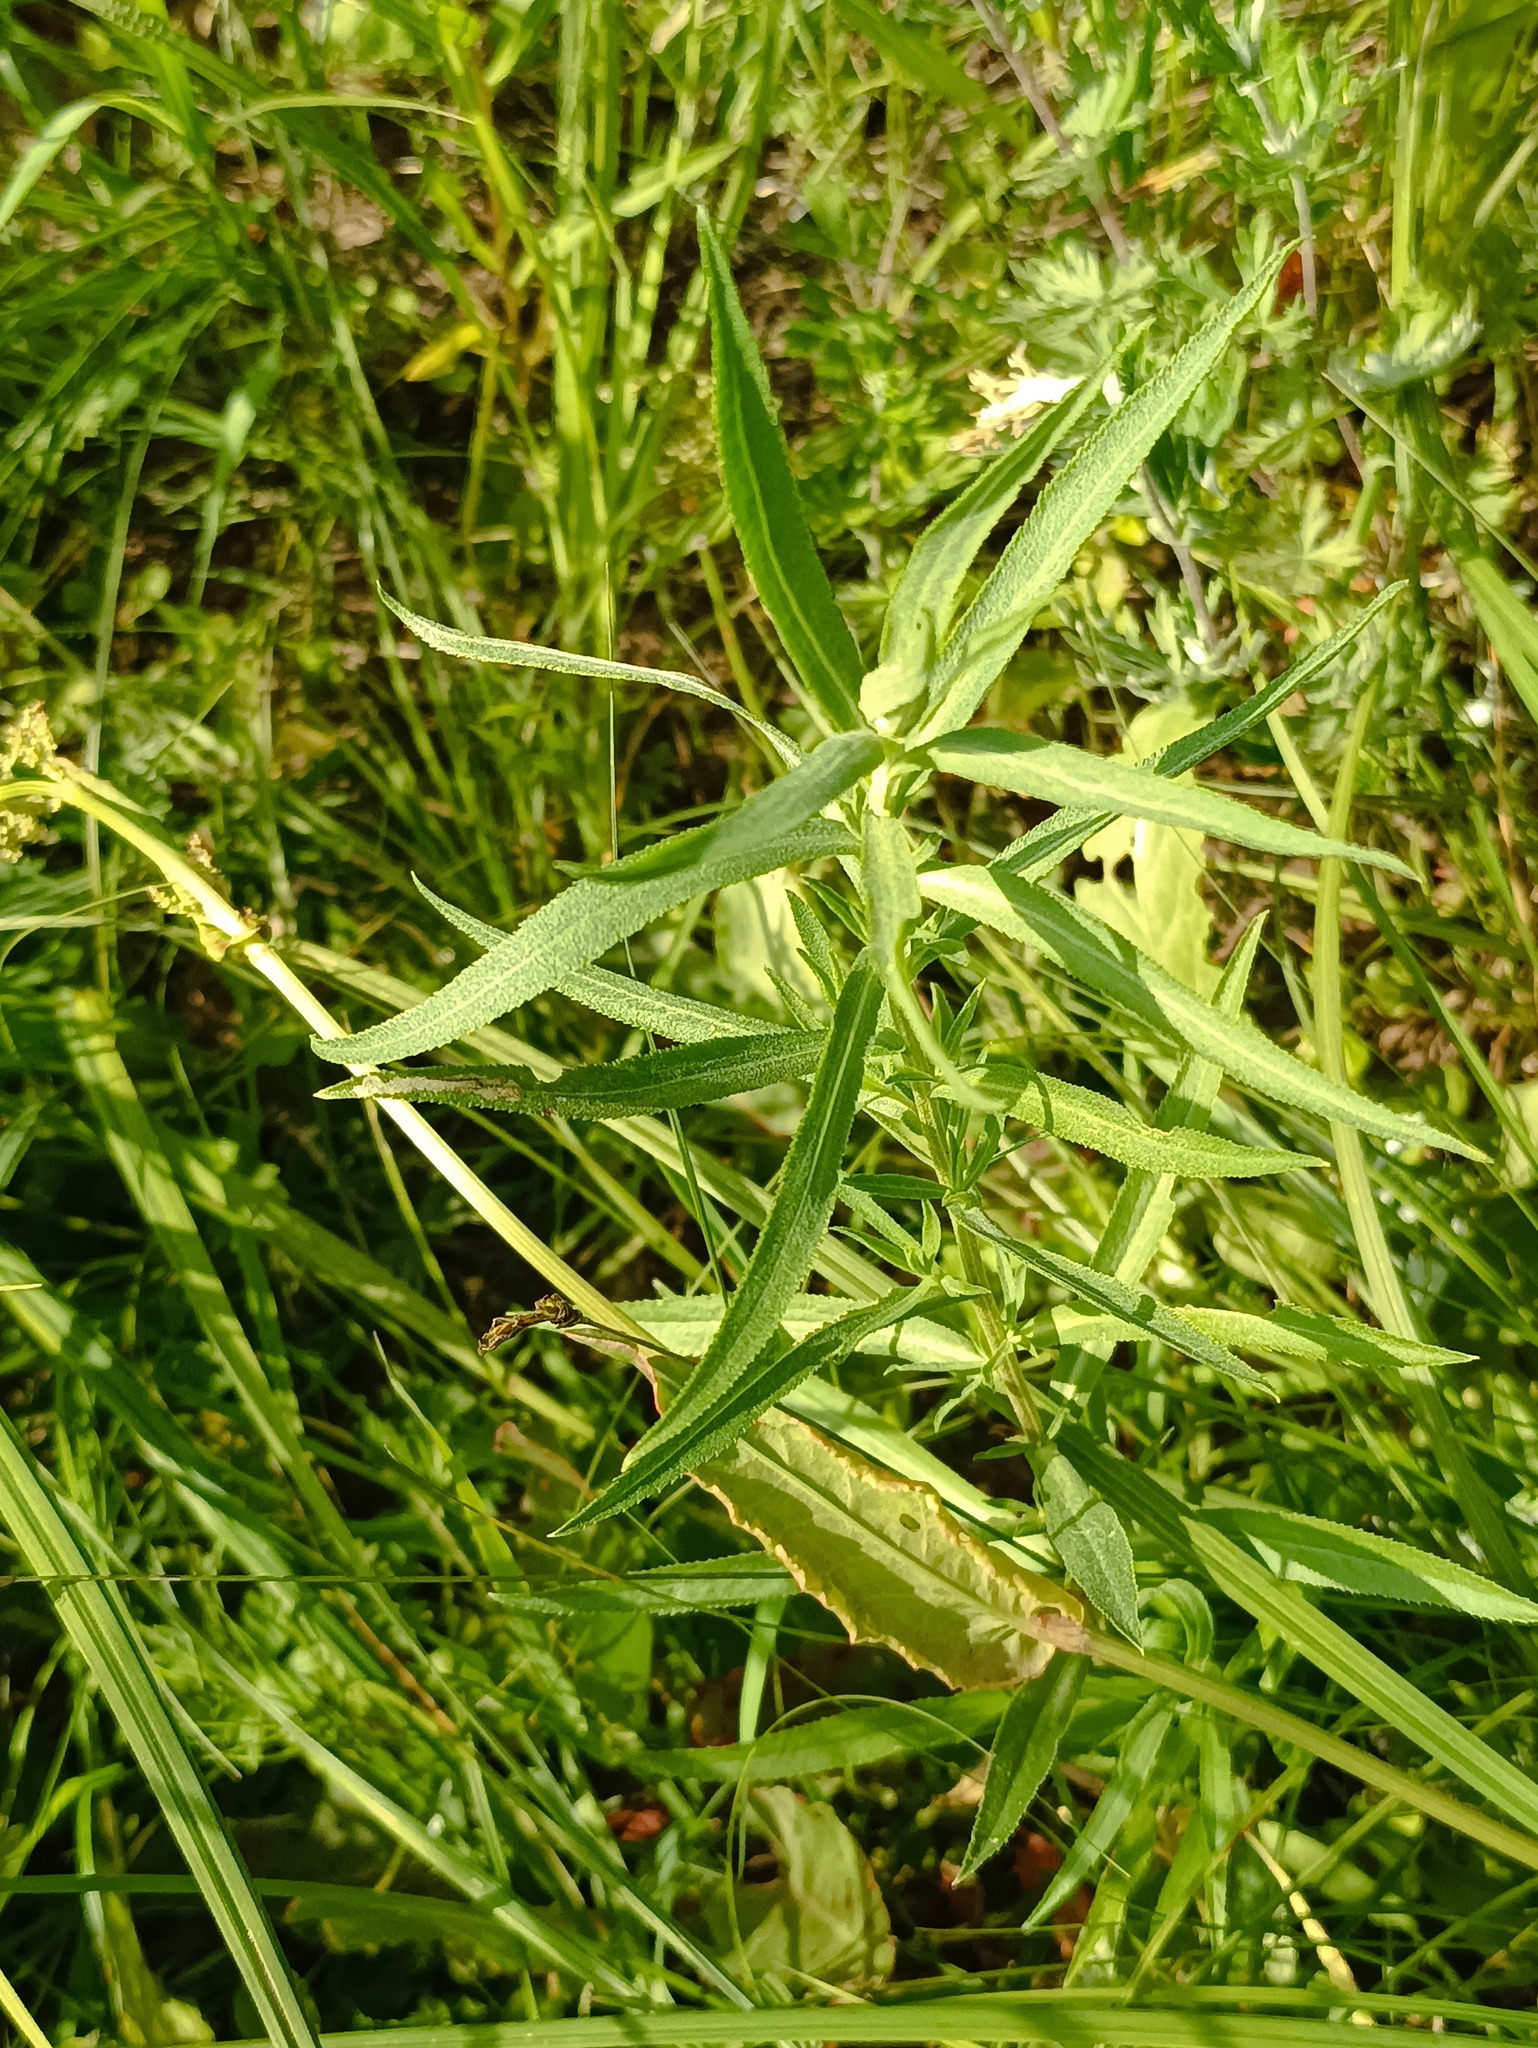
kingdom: Plantae
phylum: Tracheophyta
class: Magnoliopsida
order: Asterales
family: Asteraceae
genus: Achillea
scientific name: Achillea salicifolia
